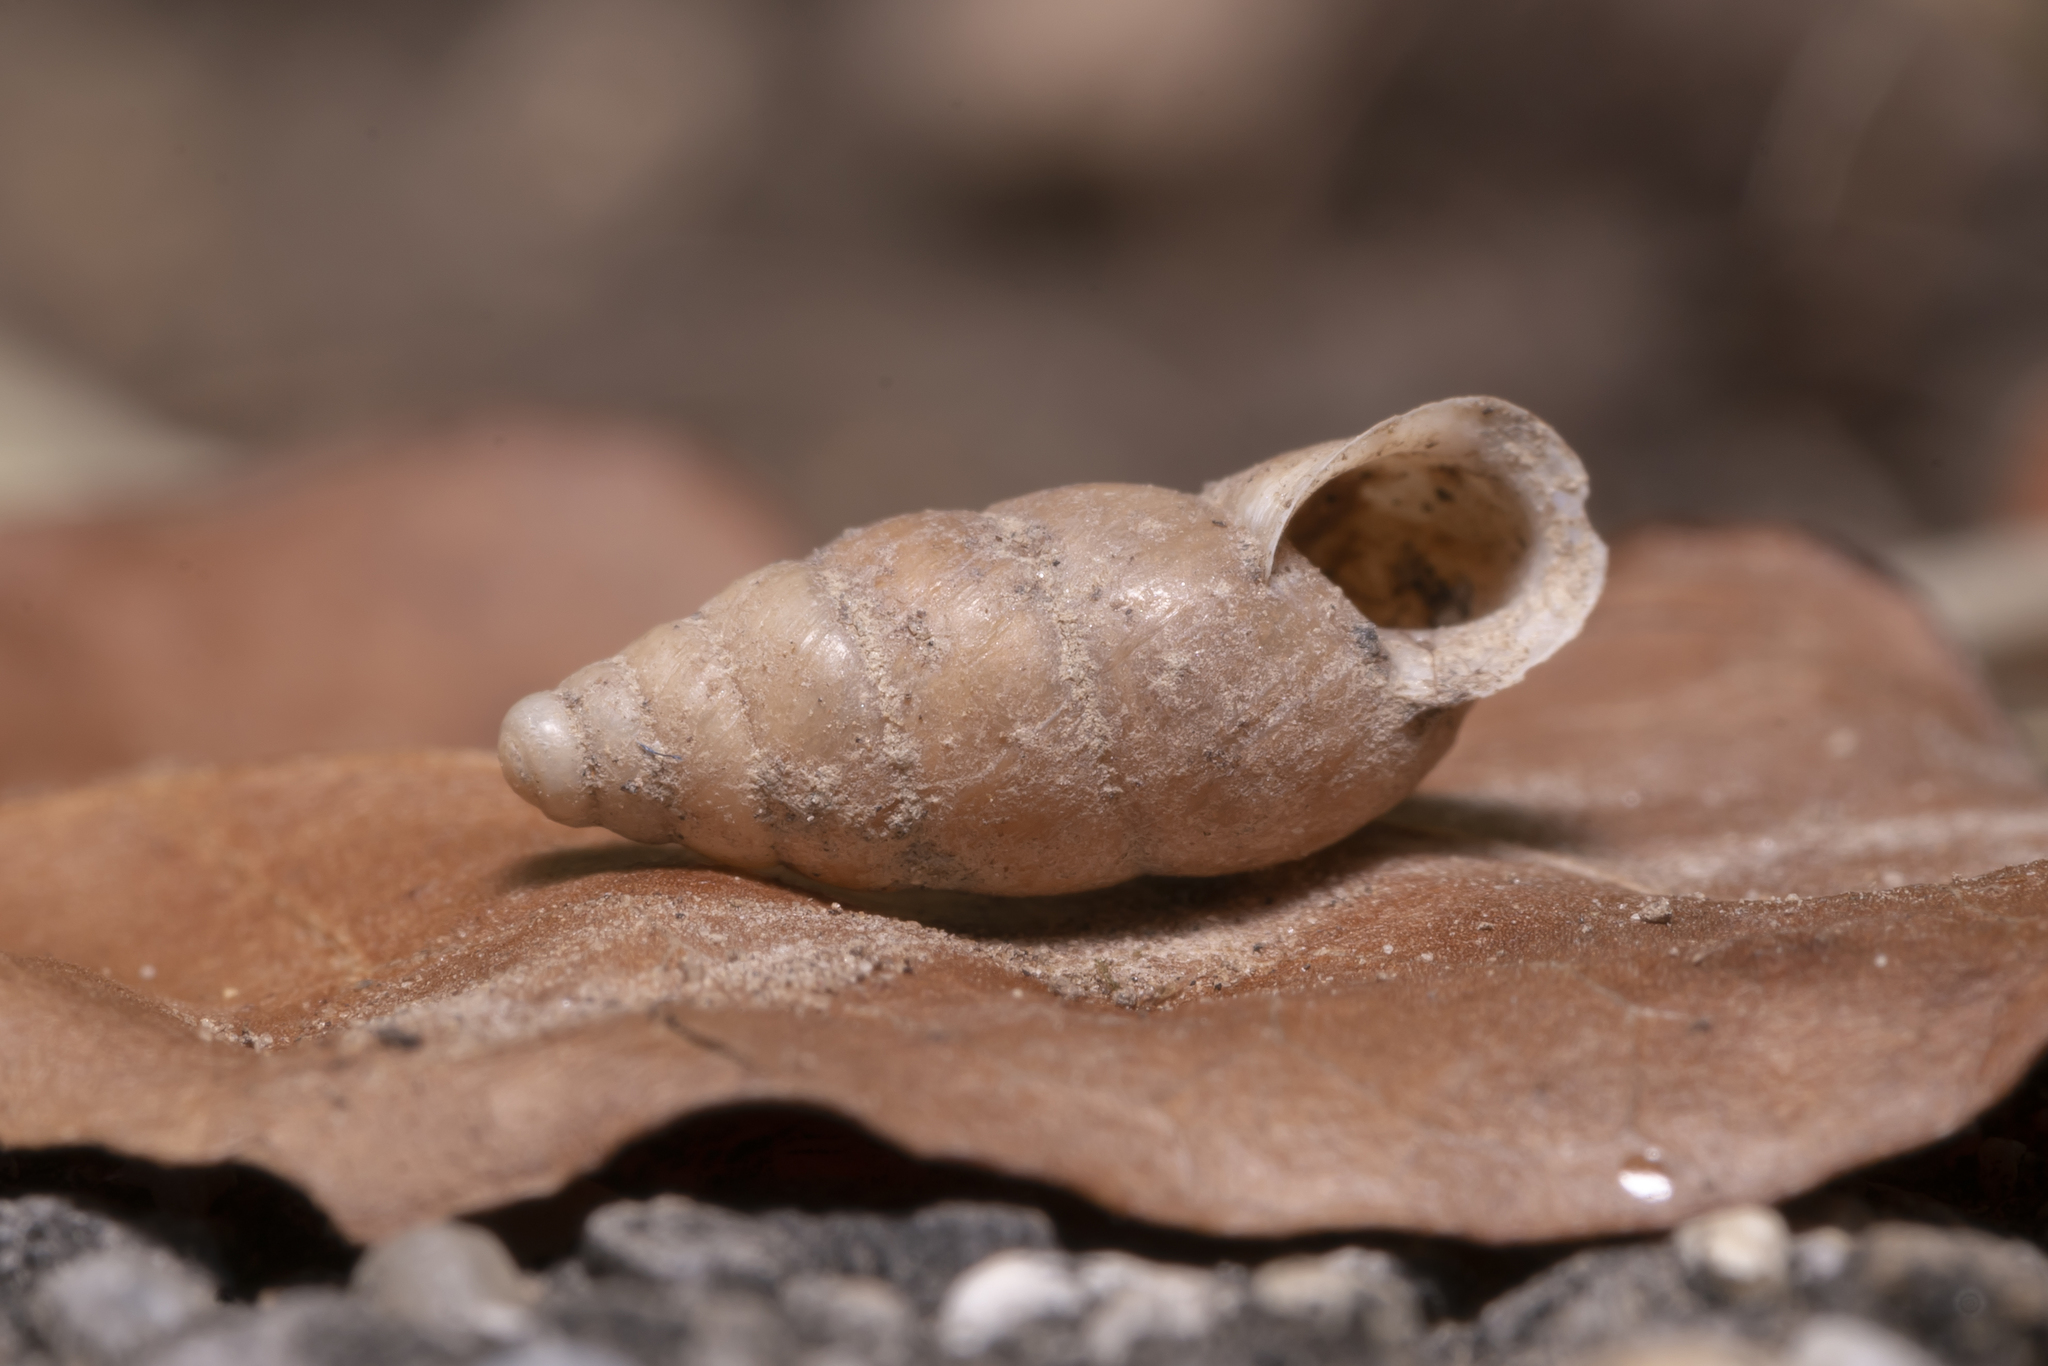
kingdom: Animalia
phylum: Mollusca
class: Gastropoda
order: Stylommatophora
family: Enidae
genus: Merdigera
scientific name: Merdigera obscura
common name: Lesser bulin
